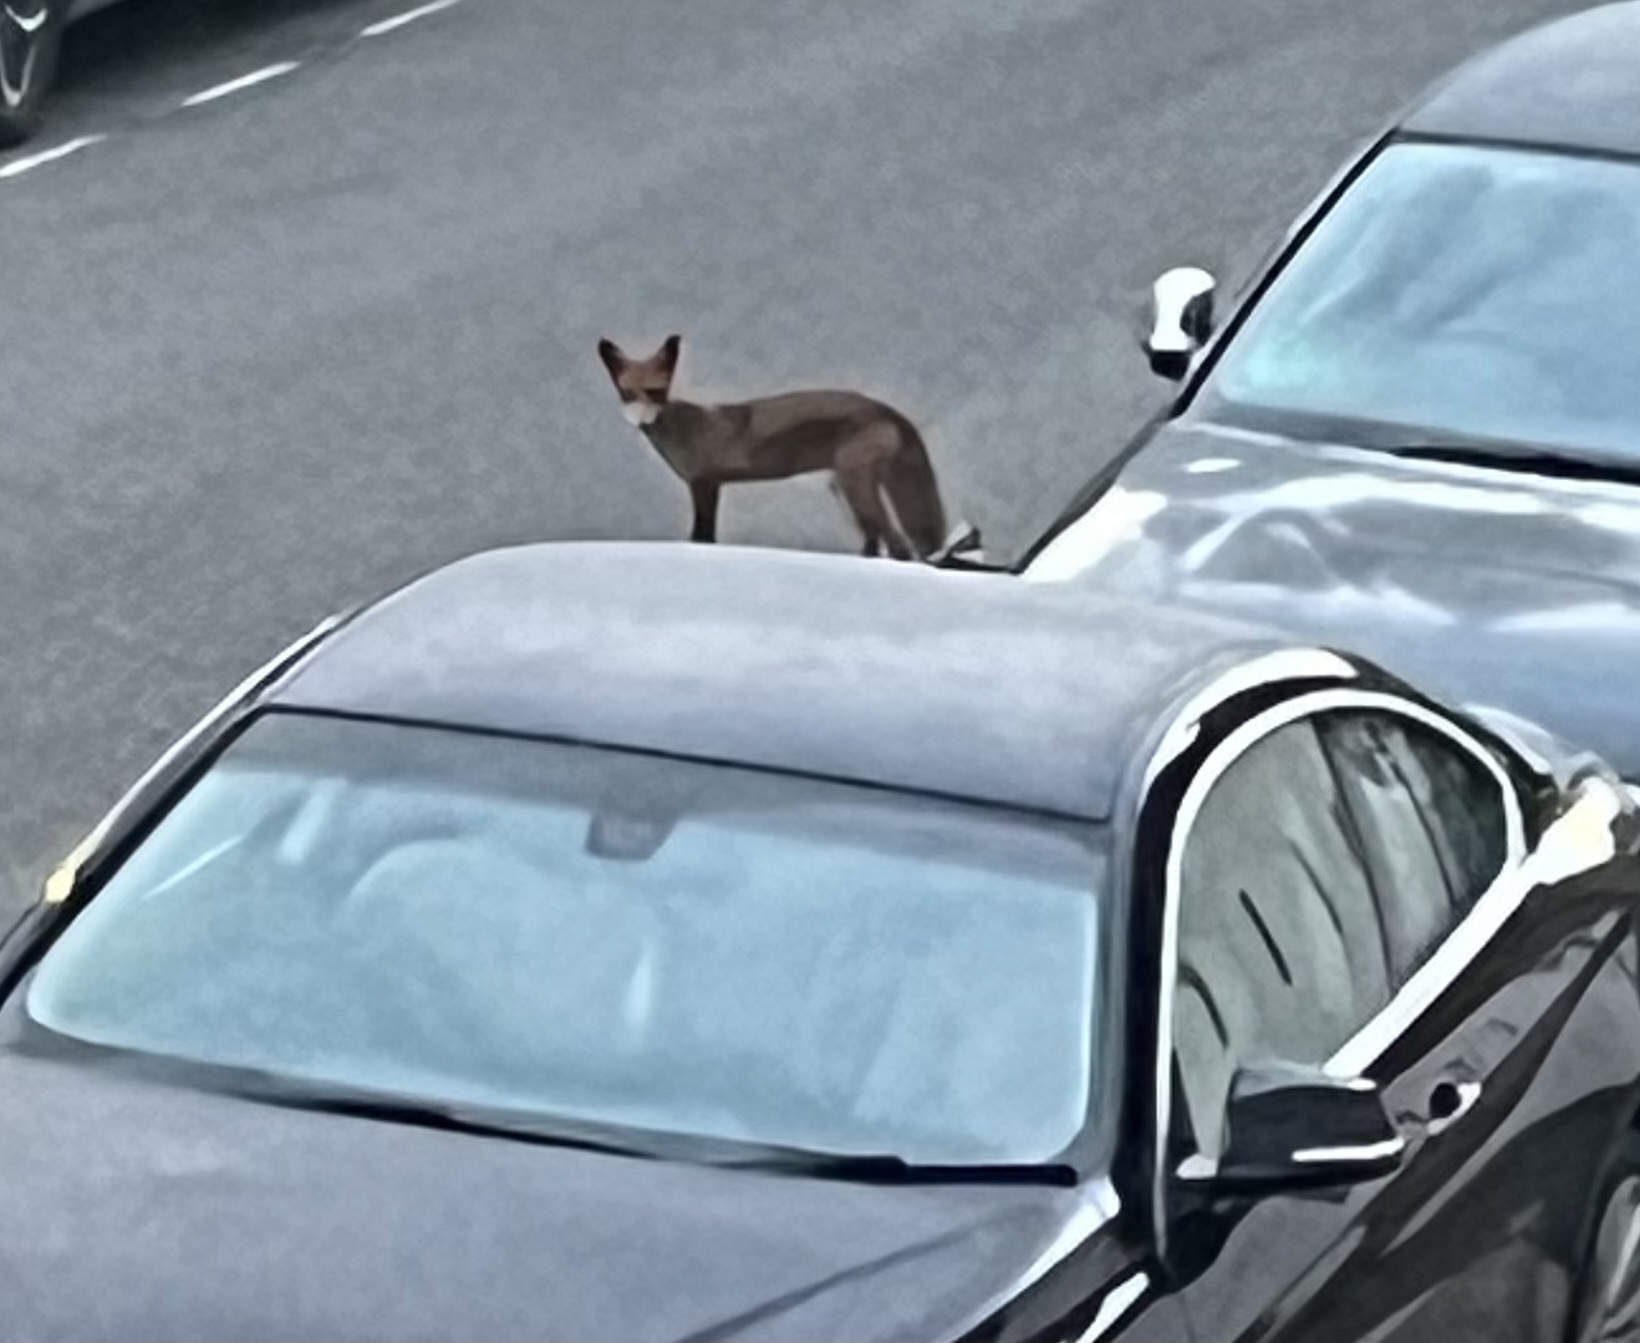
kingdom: Animalia
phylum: Chordata
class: Mammalia
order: Carnivora
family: Canidae
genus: Vulpes
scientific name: Vulpes vulpes
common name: Red fox
